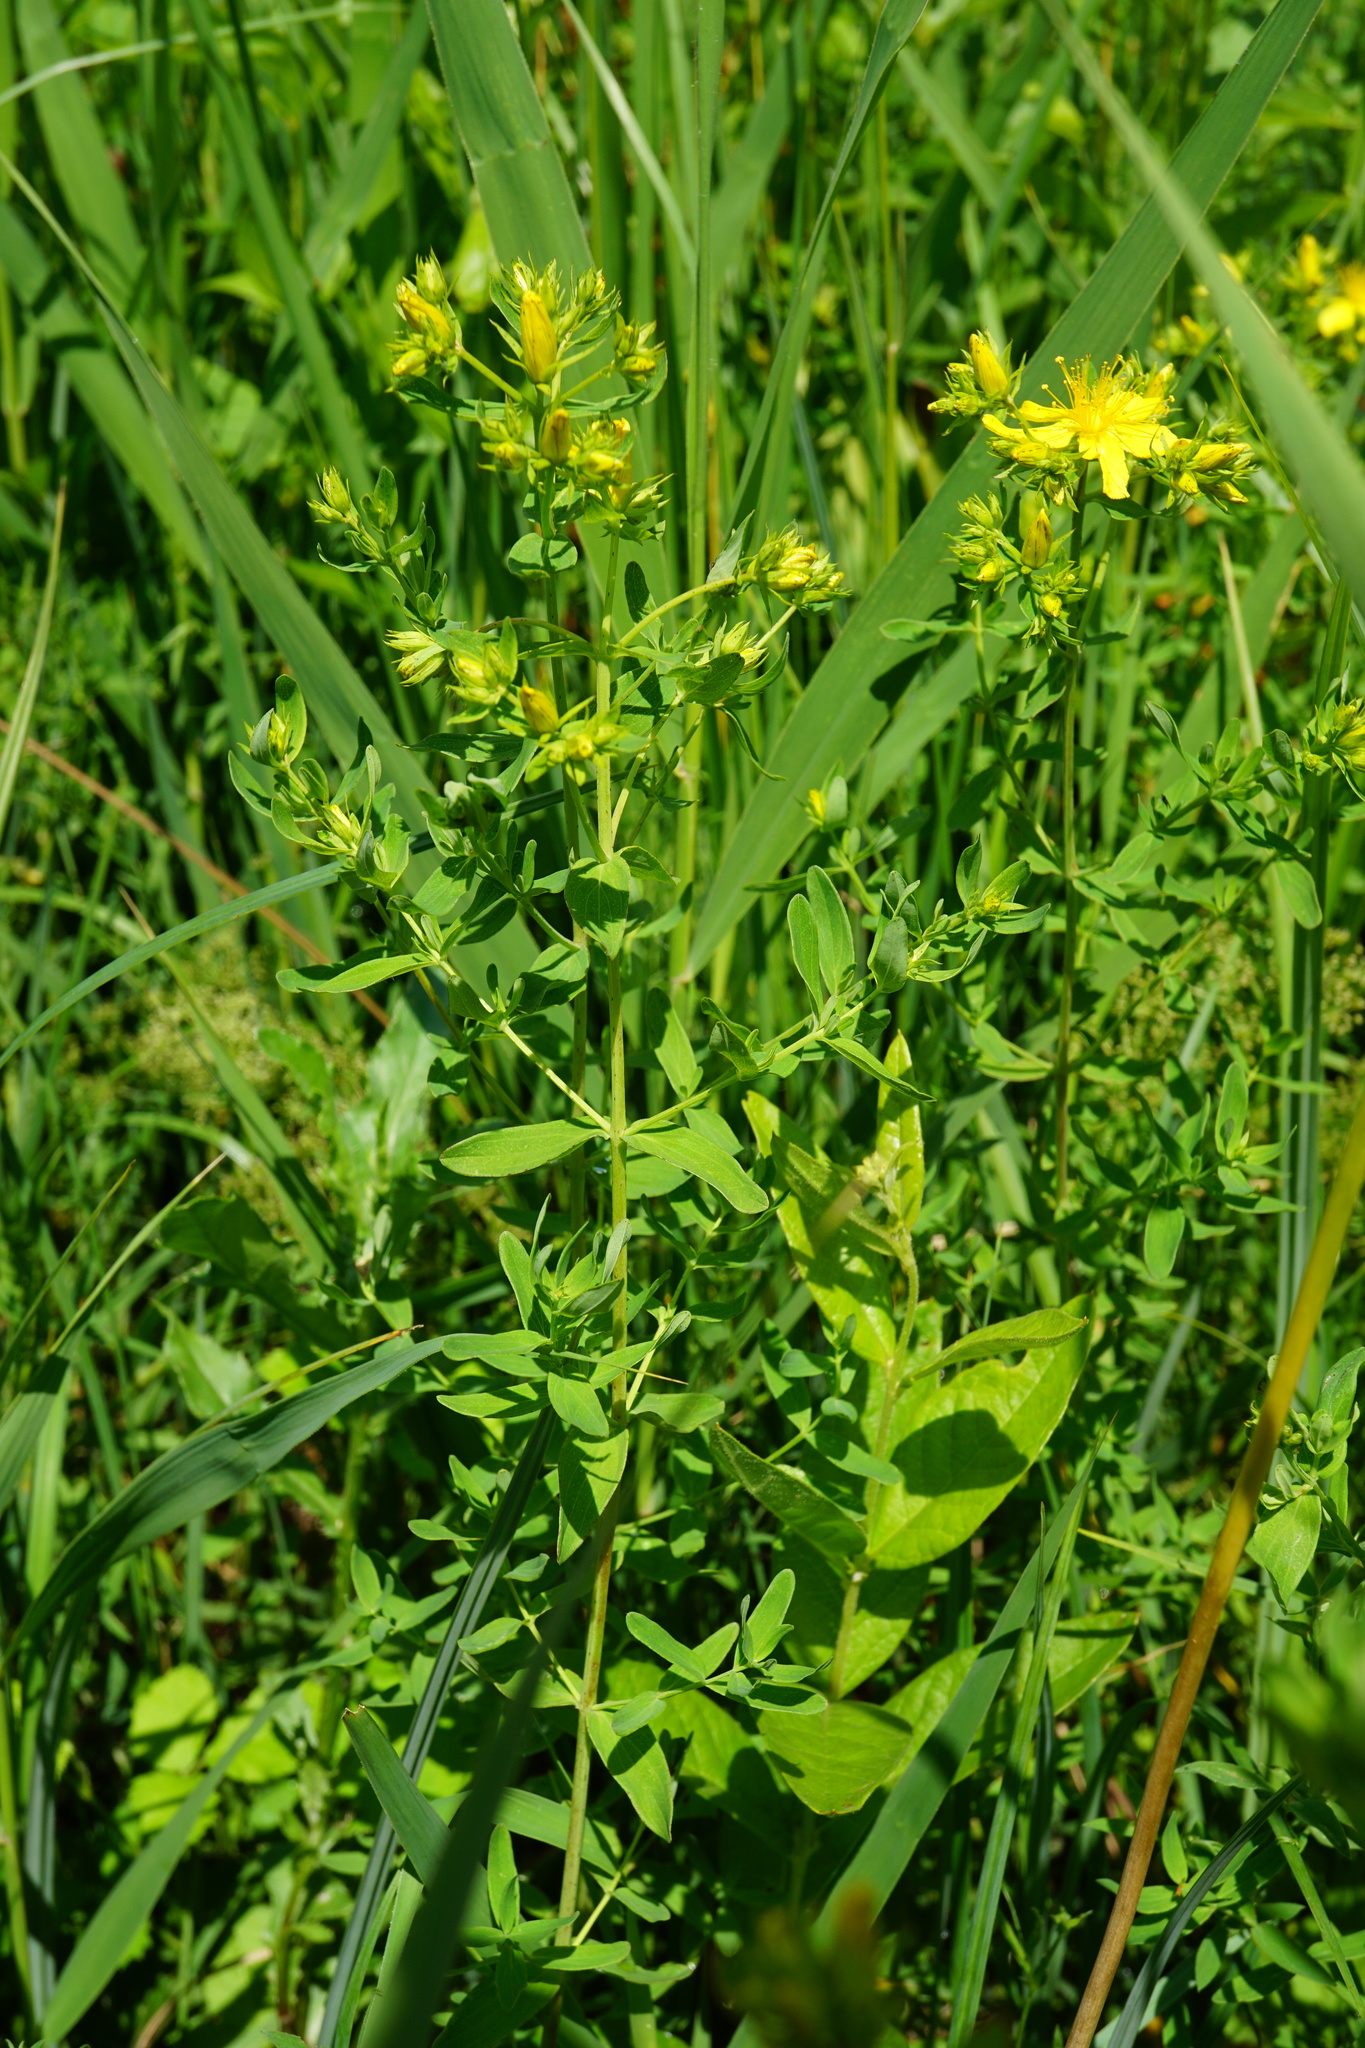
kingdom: Plantae
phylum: Tracheophyta
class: Magnoliopsida
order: Malpighiales
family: Hypericaceae
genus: Hypericum
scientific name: Hypericum perforatum
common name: Common st. johnswort
